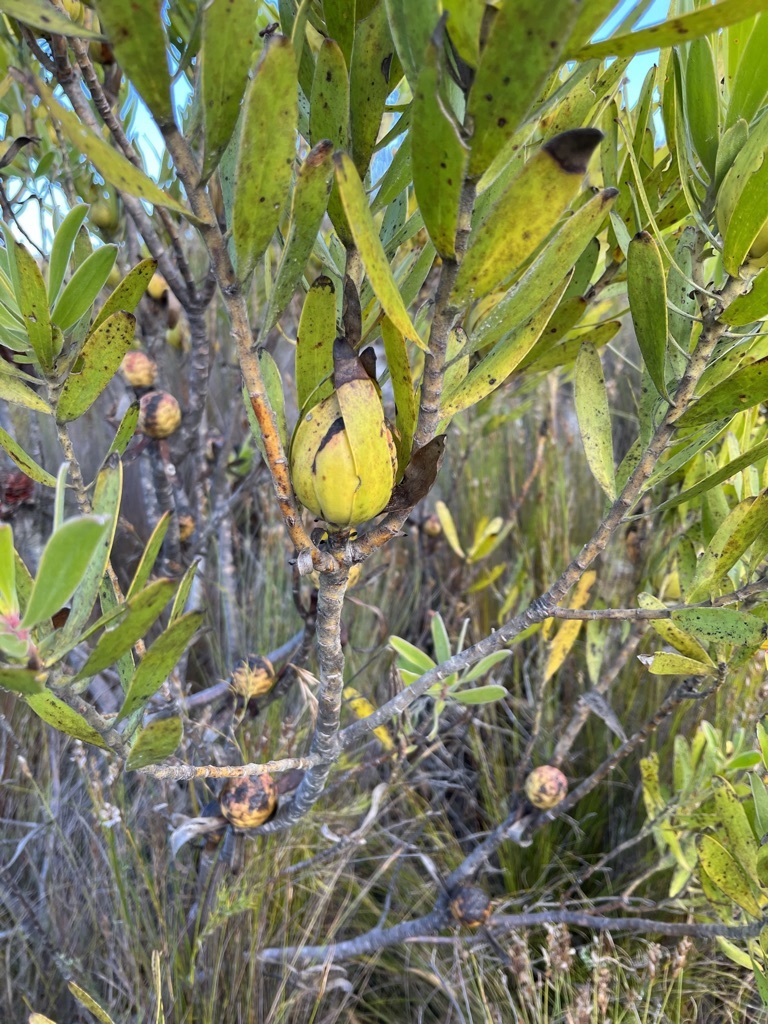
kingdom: Plantae
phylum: Tracheophyta
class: Magnoliopsida
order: Proteales
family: Proteaceae
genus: Leucadendron
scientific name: Leucadendron laureolum
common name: Golden sunshinebush
